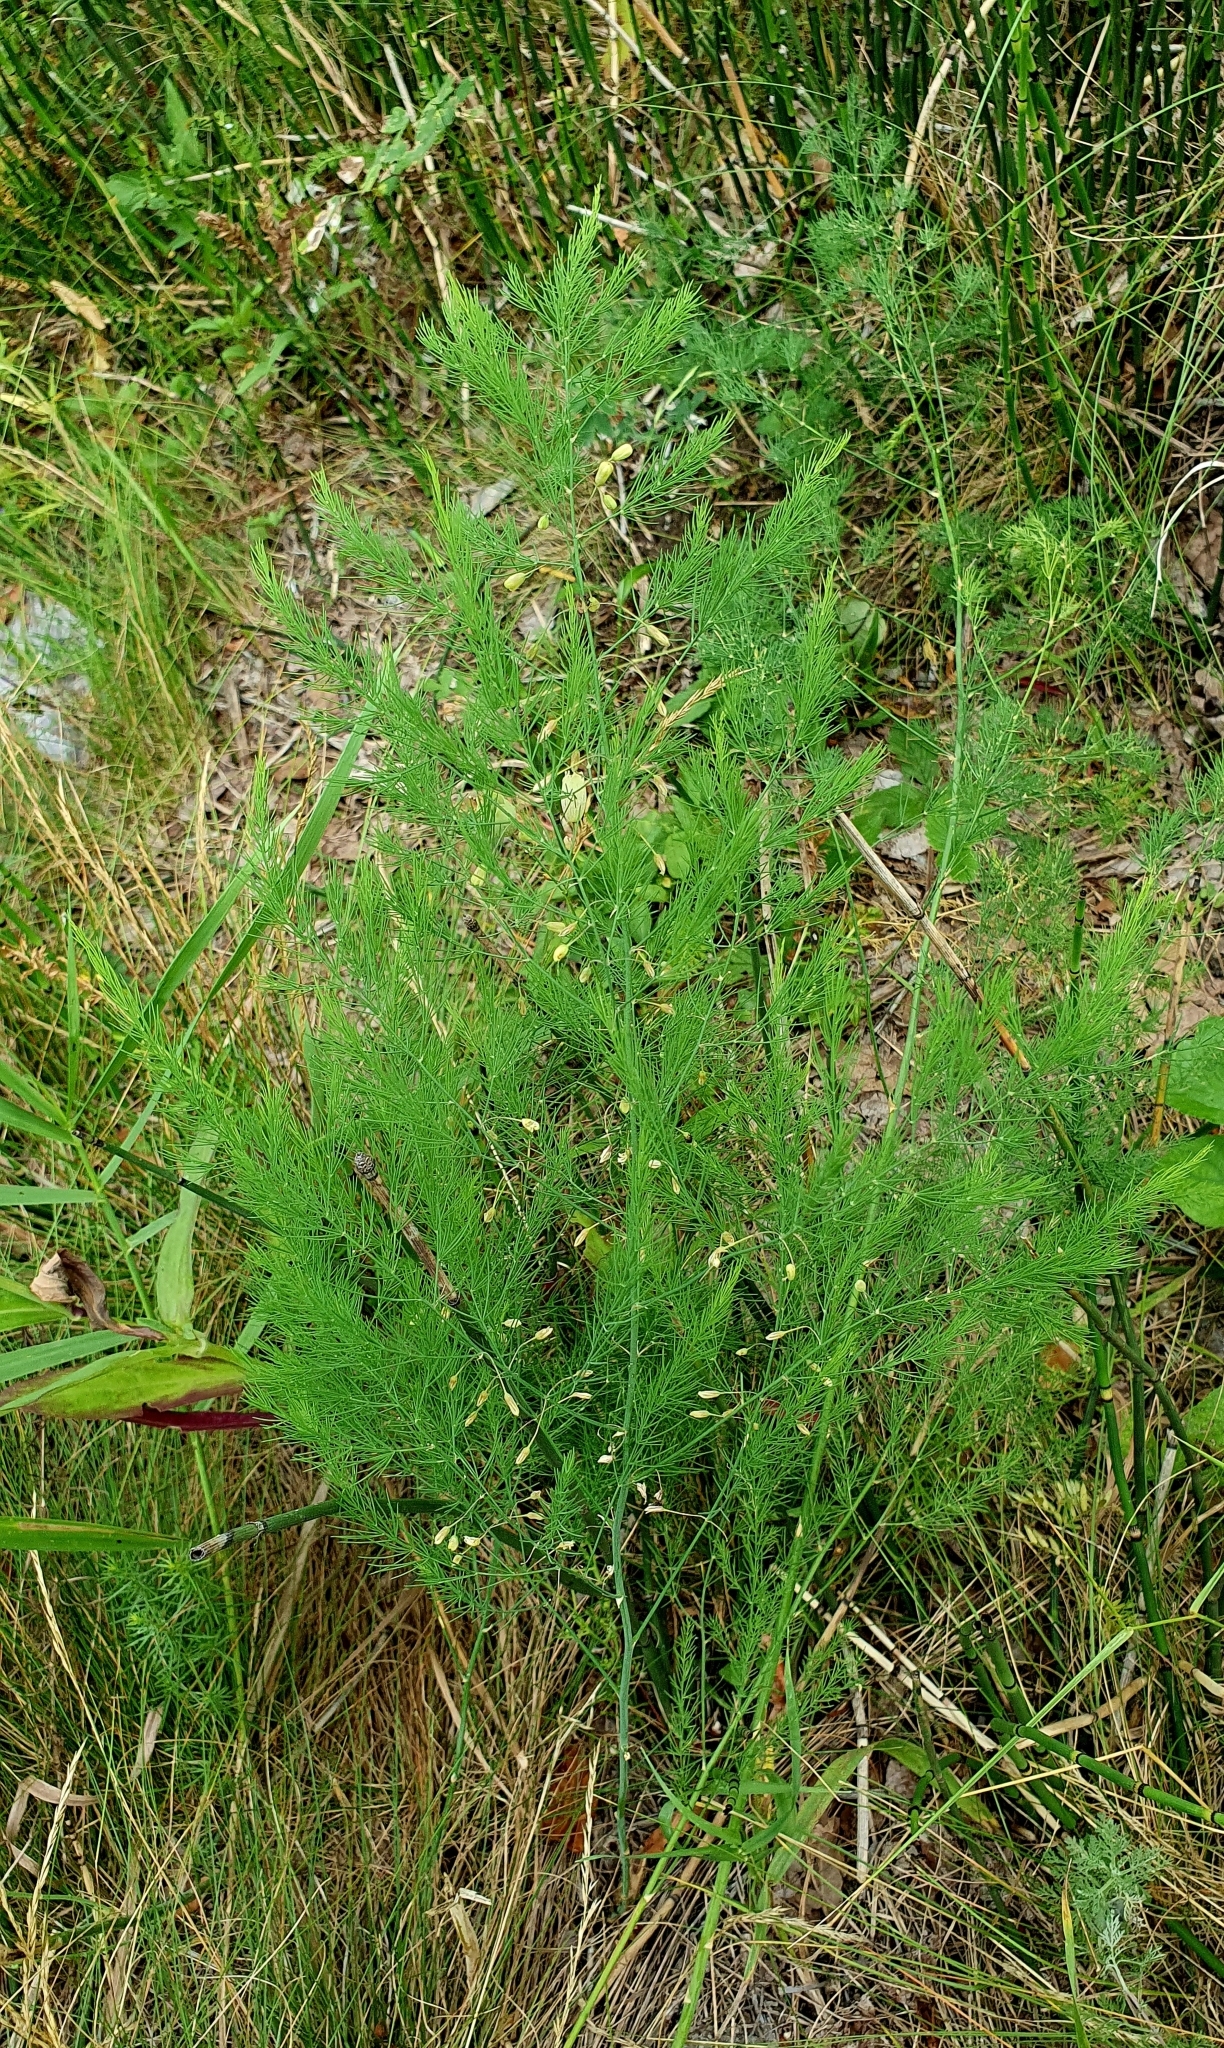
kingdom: Plantae
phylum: Tracheophyta
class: Liliopsida
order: Asparagales
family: Asparagaceae
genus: Asparagus
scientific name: Asparagus officinalis
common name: Garden asparagus
